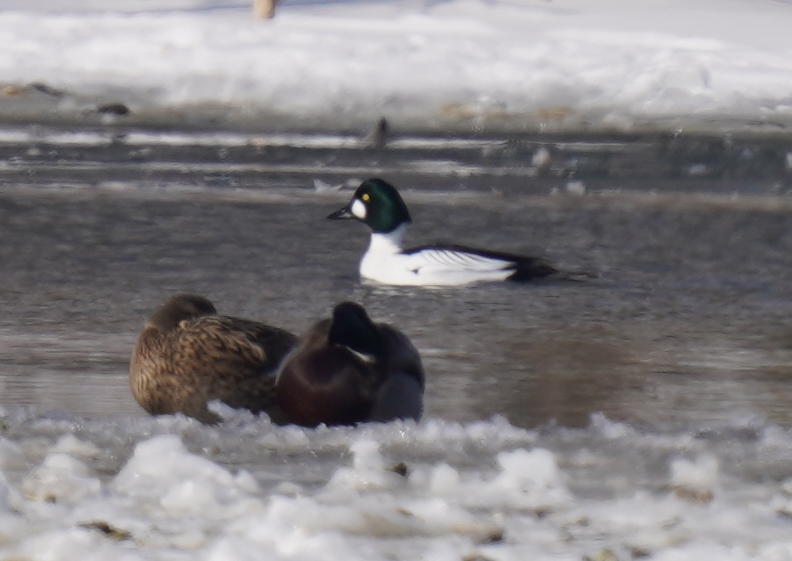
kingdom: Animalia
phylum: Chordata
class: Aves
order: Anseriformes
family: Anatidae
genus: Bucephala
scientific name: Bucephala clangula
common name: Common goldeneye
